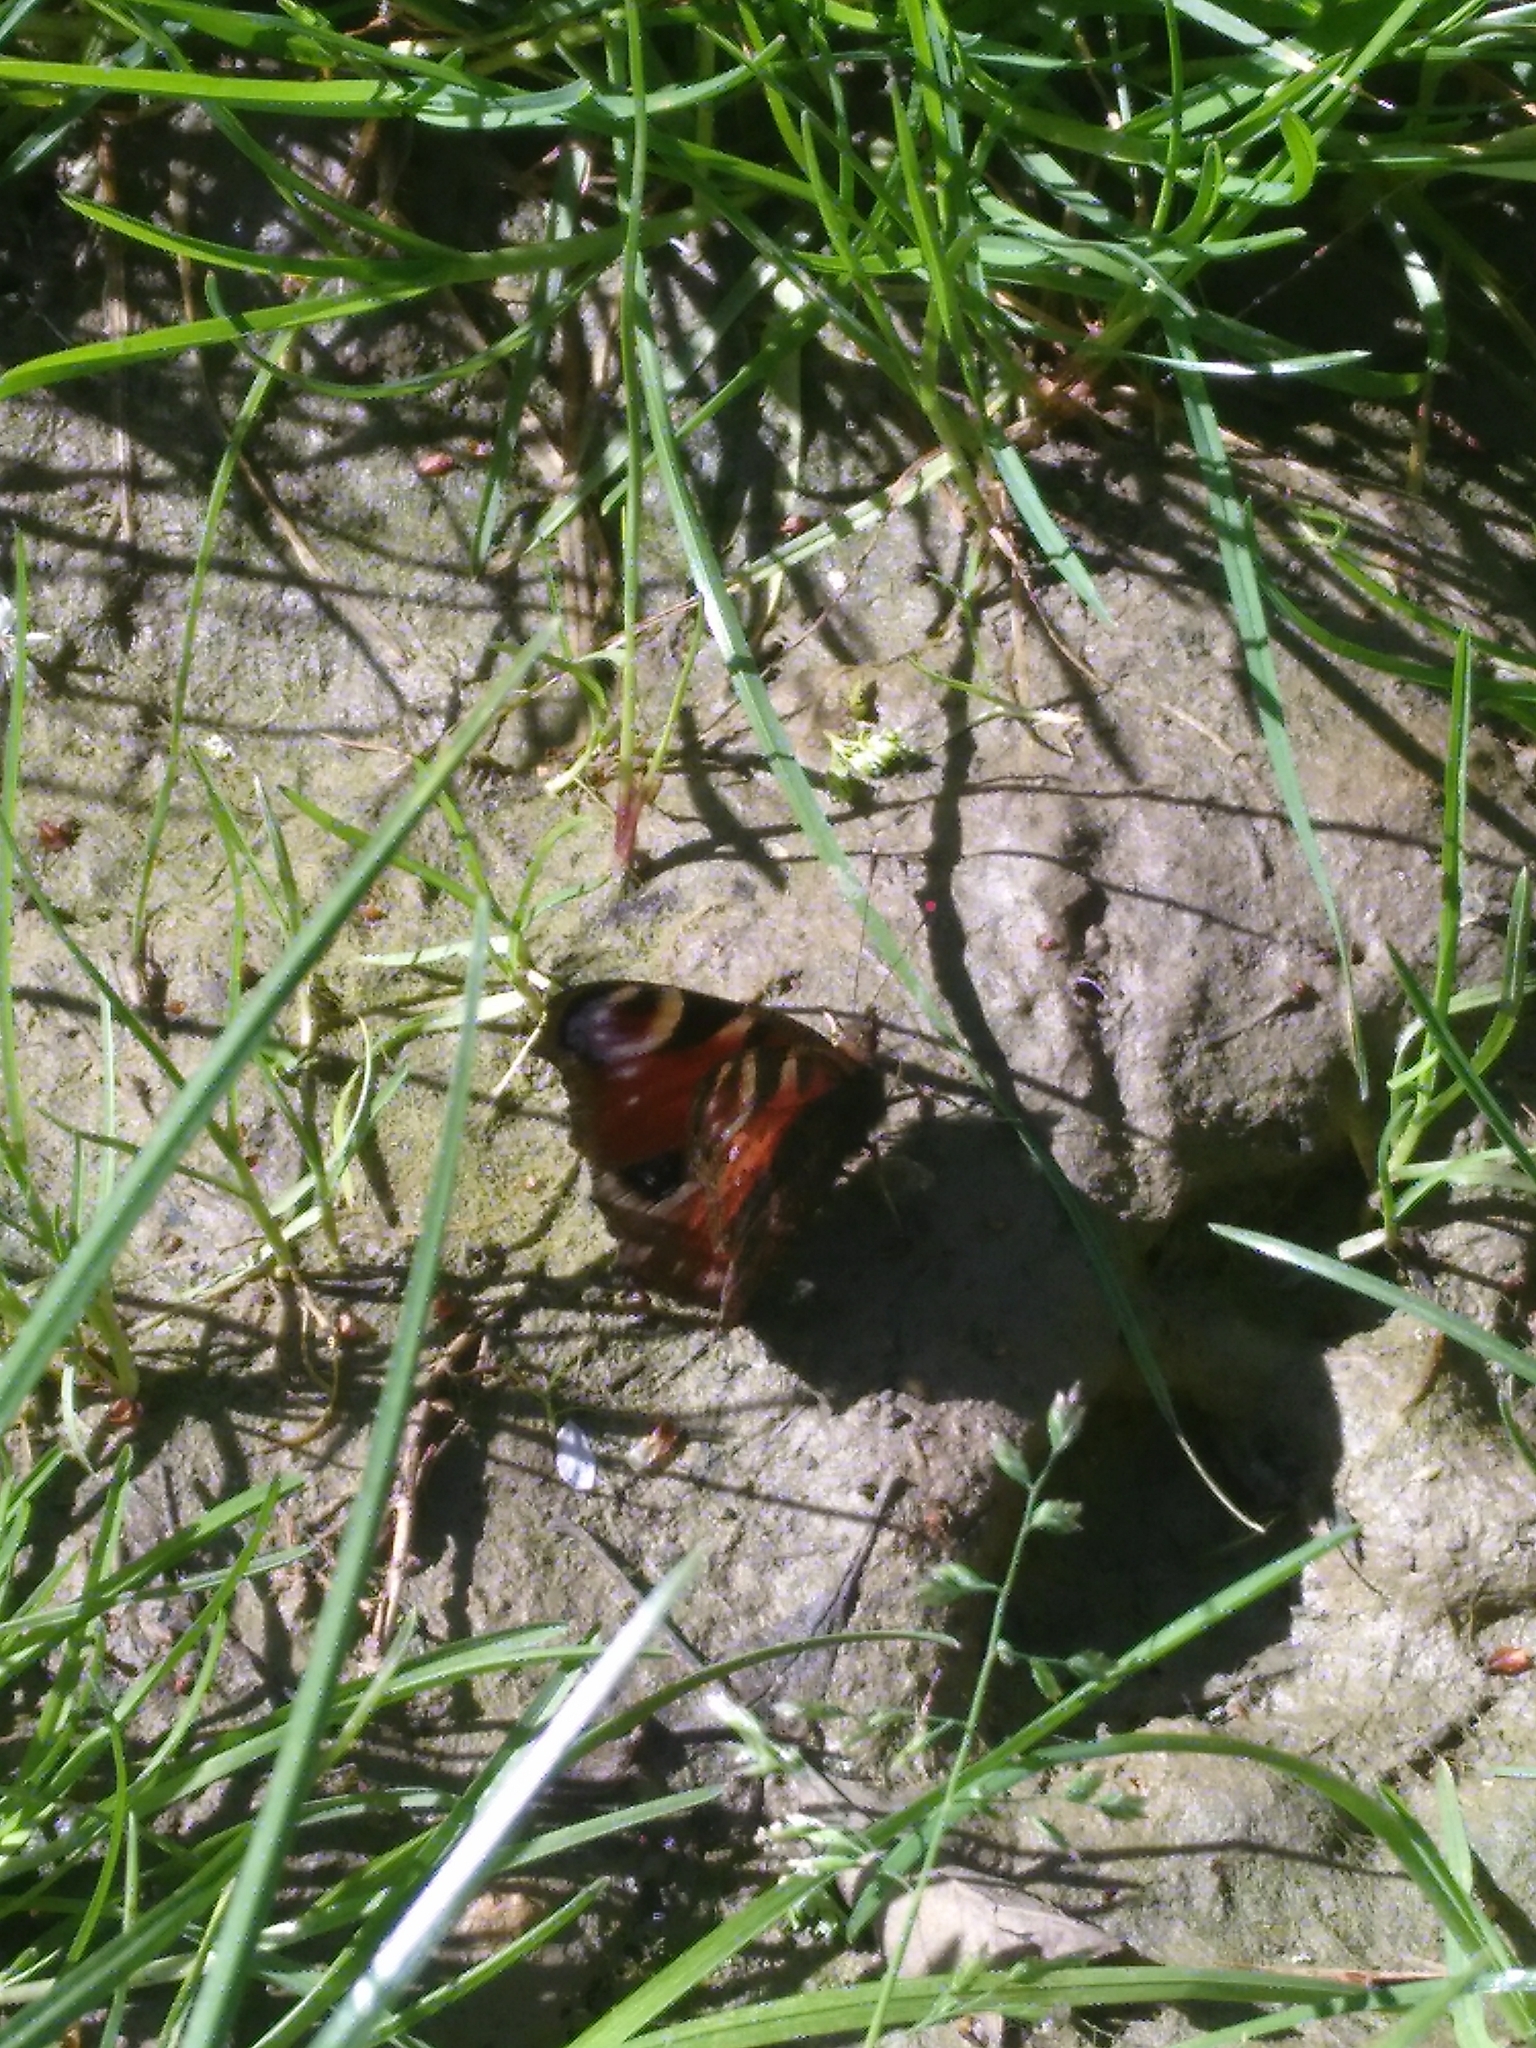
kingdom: Animalia
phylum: Arthropoda
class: Insecta
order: Lepidoptera
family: Nymphalidae
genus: Aglais
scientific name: Aglais io
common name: Peacock
